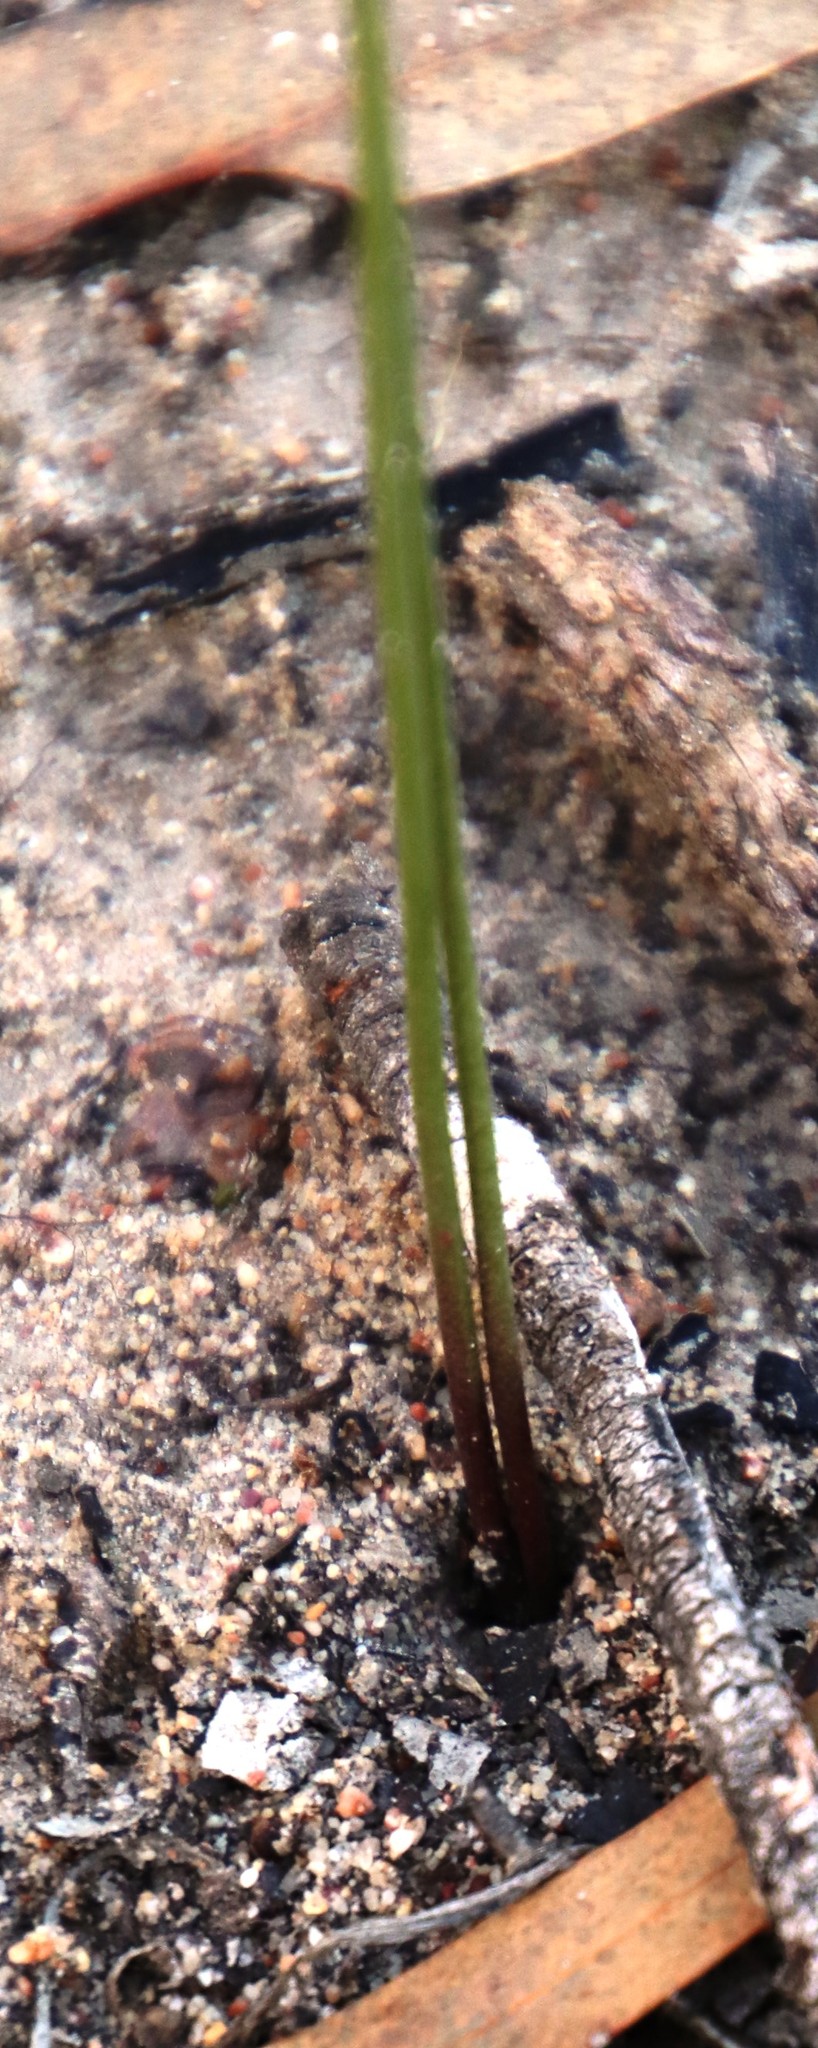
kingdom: Plantae
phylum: Tracheophyta
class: Liliopsida
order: Asparagales
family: Asphodelaceae
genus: Bulbine
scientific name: Bulbine cepacea
